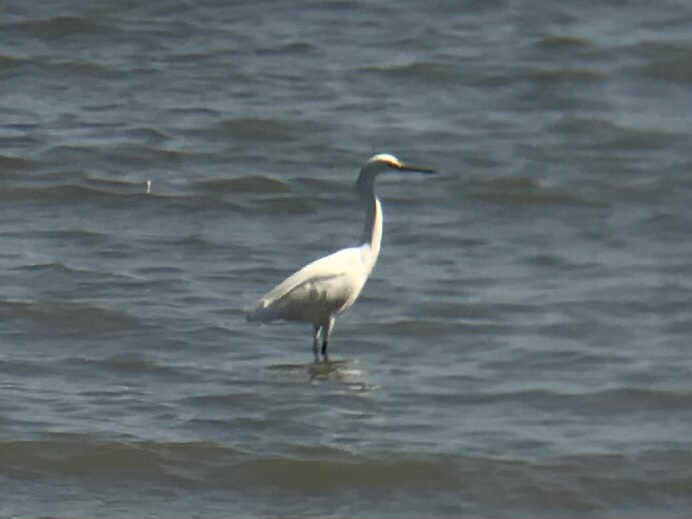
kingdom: Animalia
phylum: Chordata
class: Aves
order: Pelecaniformes
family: Ardeidae
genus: Egretta
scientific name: Egretta thula
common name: Snowy egret
